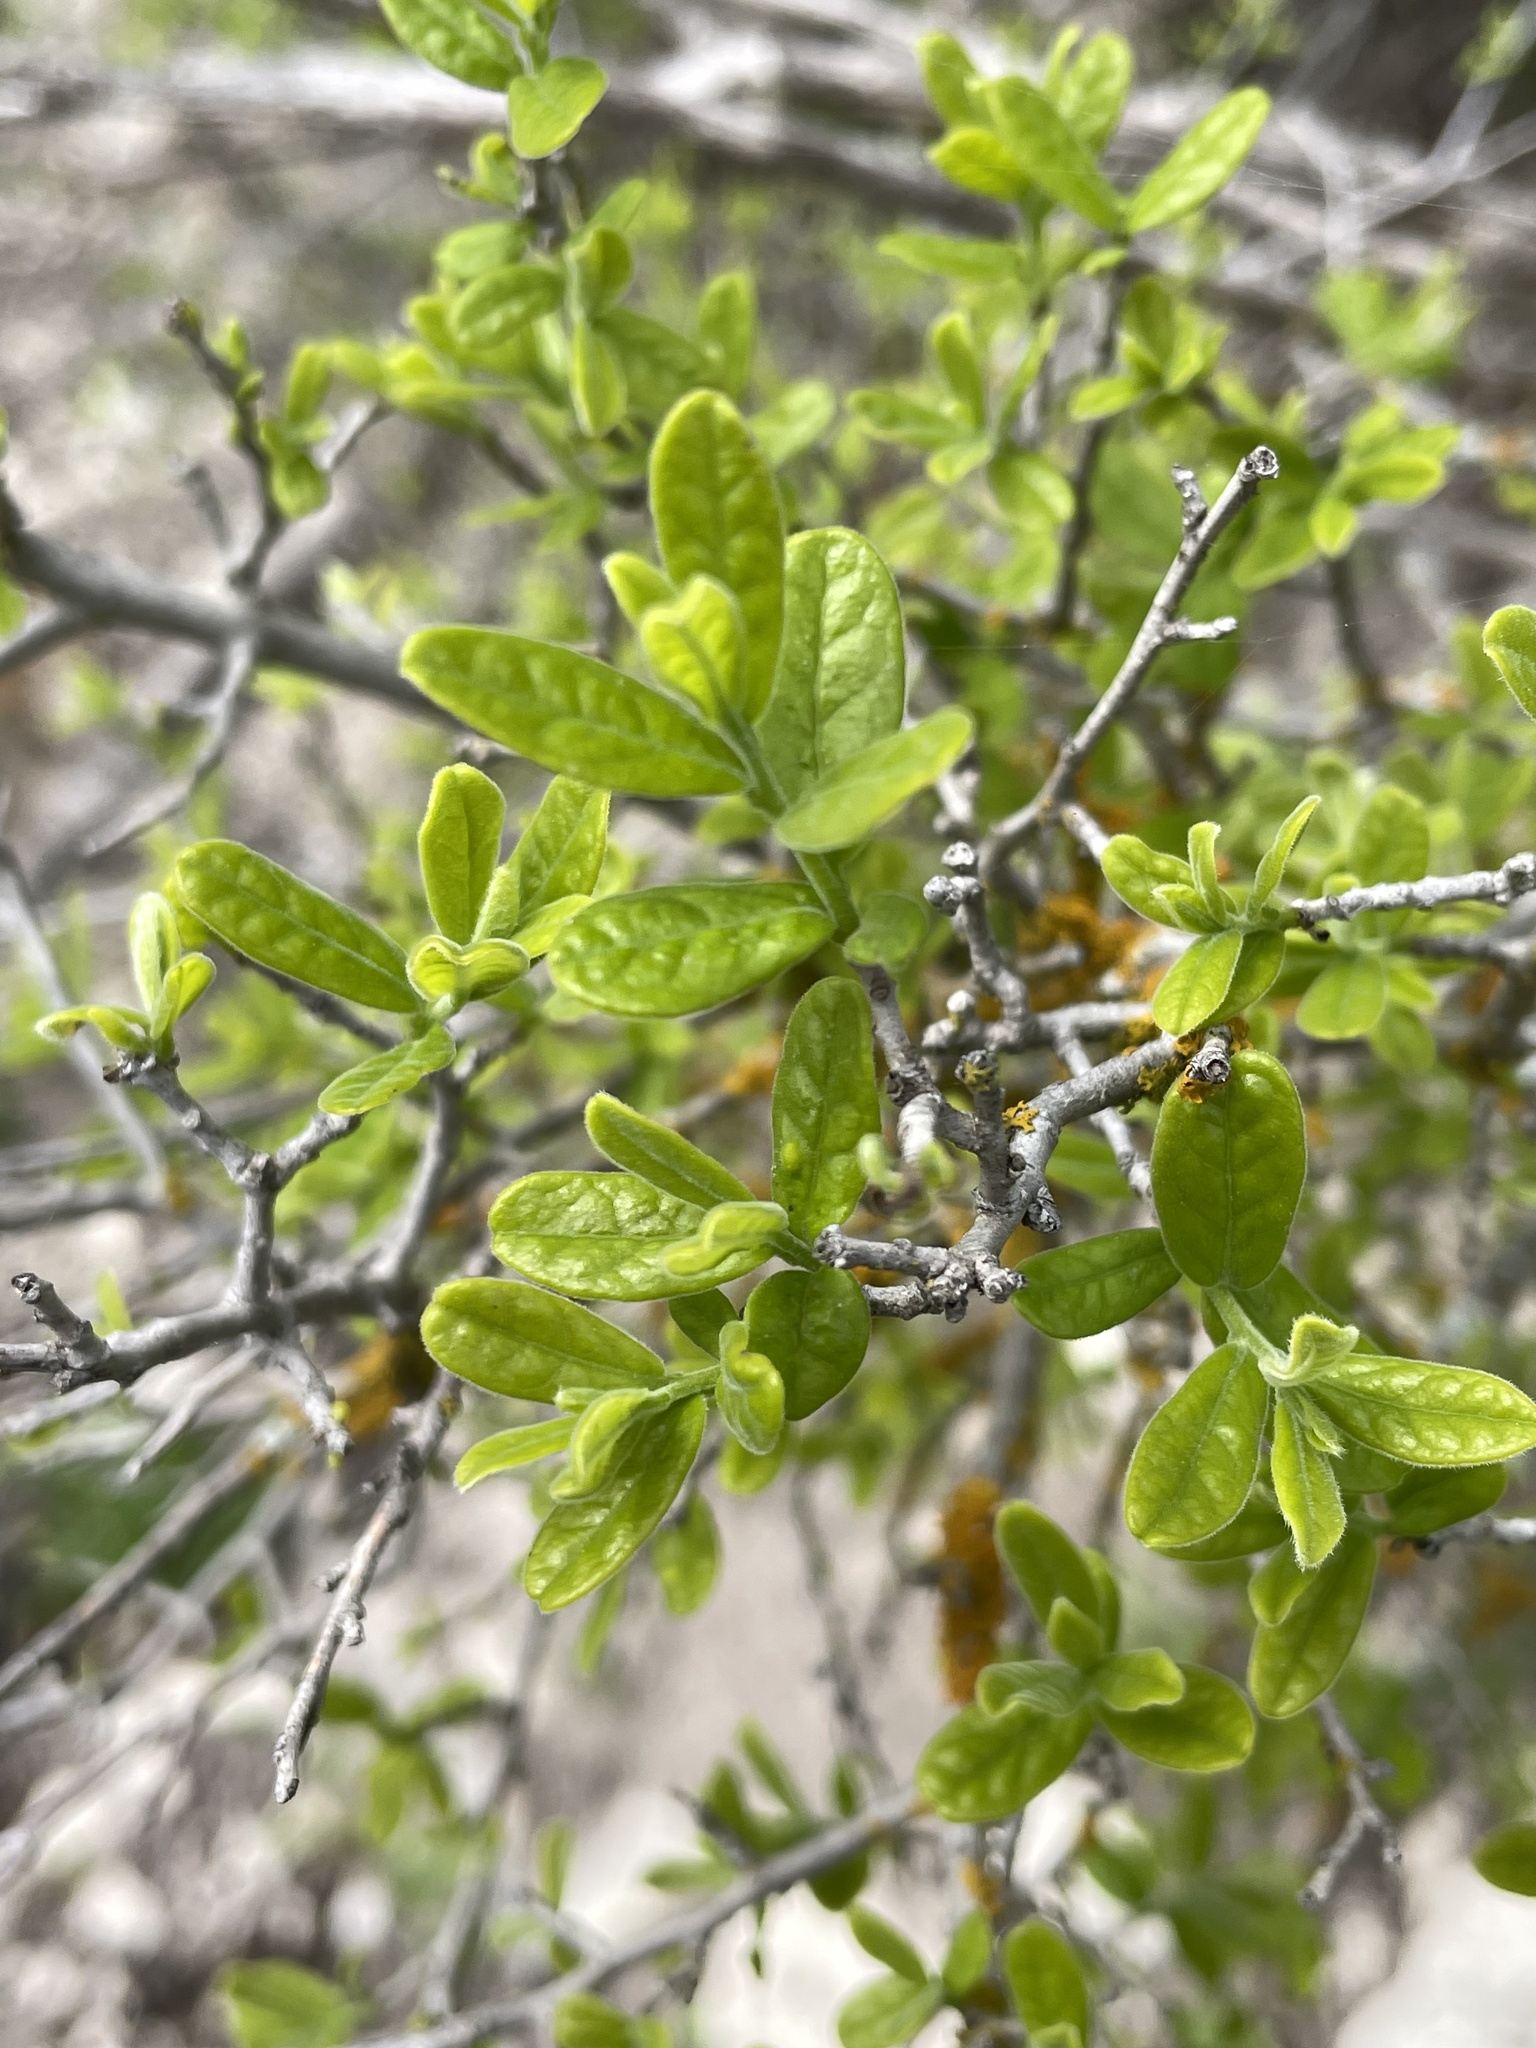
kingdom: Plantae
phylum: Tracheophyta
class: Magnoliopsida
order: Ericales
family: Ebenaceae
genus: Diospyros
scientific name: Diospyros texana
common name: Texas persimmon
